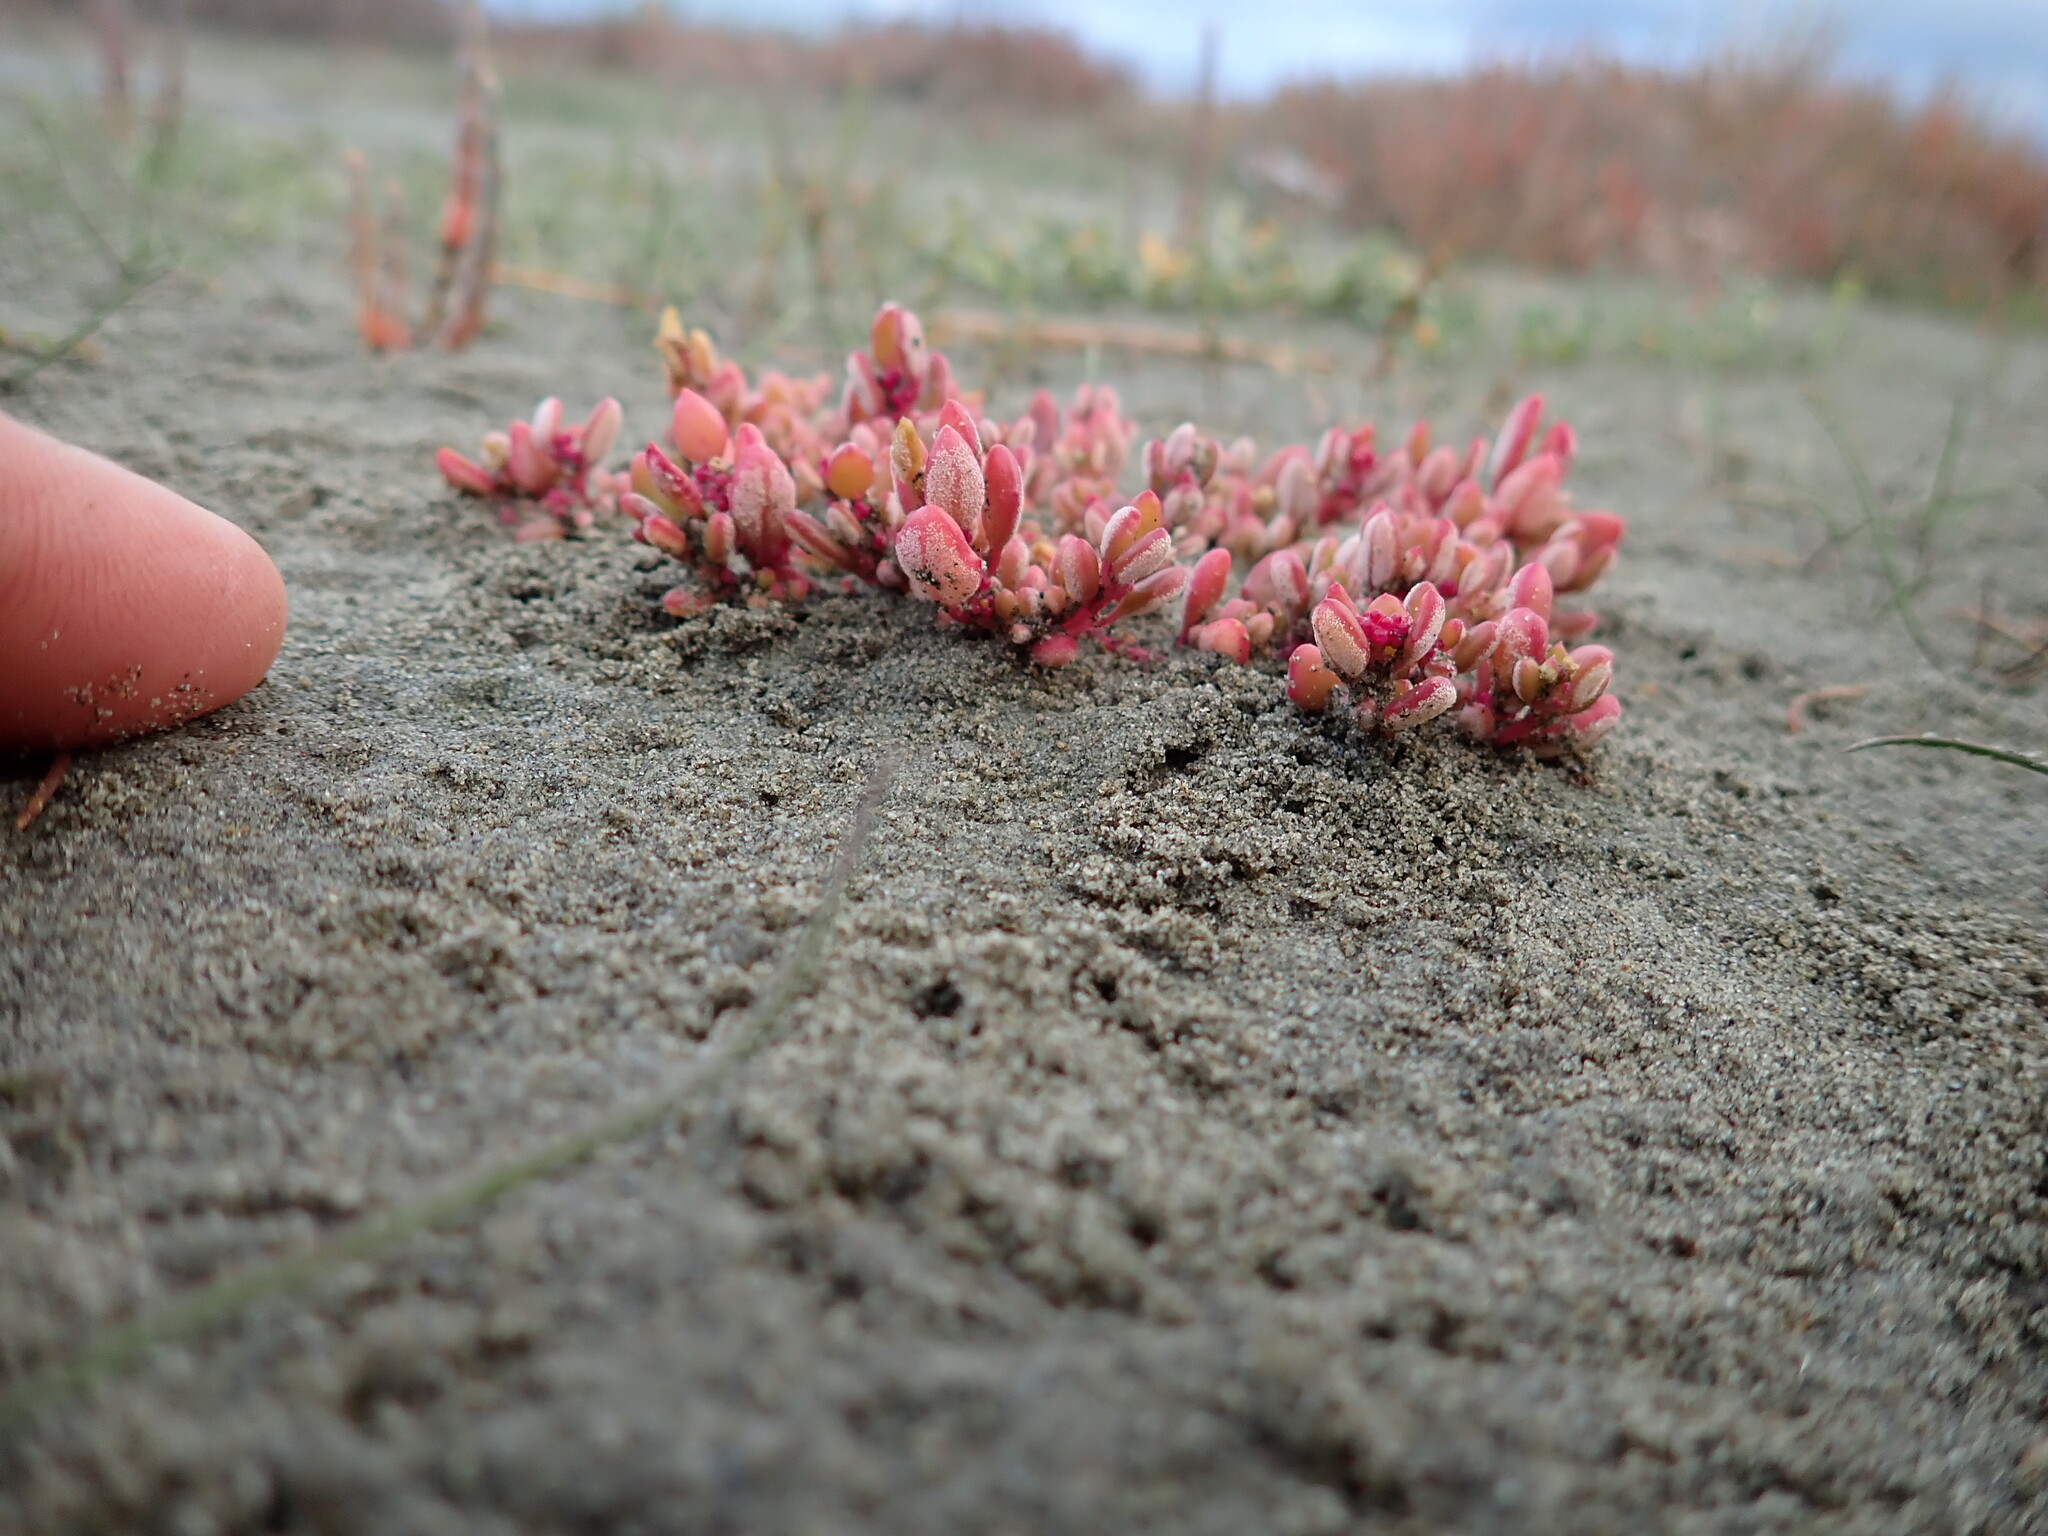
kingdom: Plantae
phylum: Tracheophyta
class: Magnoliopsida
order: Caryophyllales
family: Amaranthaceae
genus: Oxybasis
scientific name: Oxybasis ambigua
